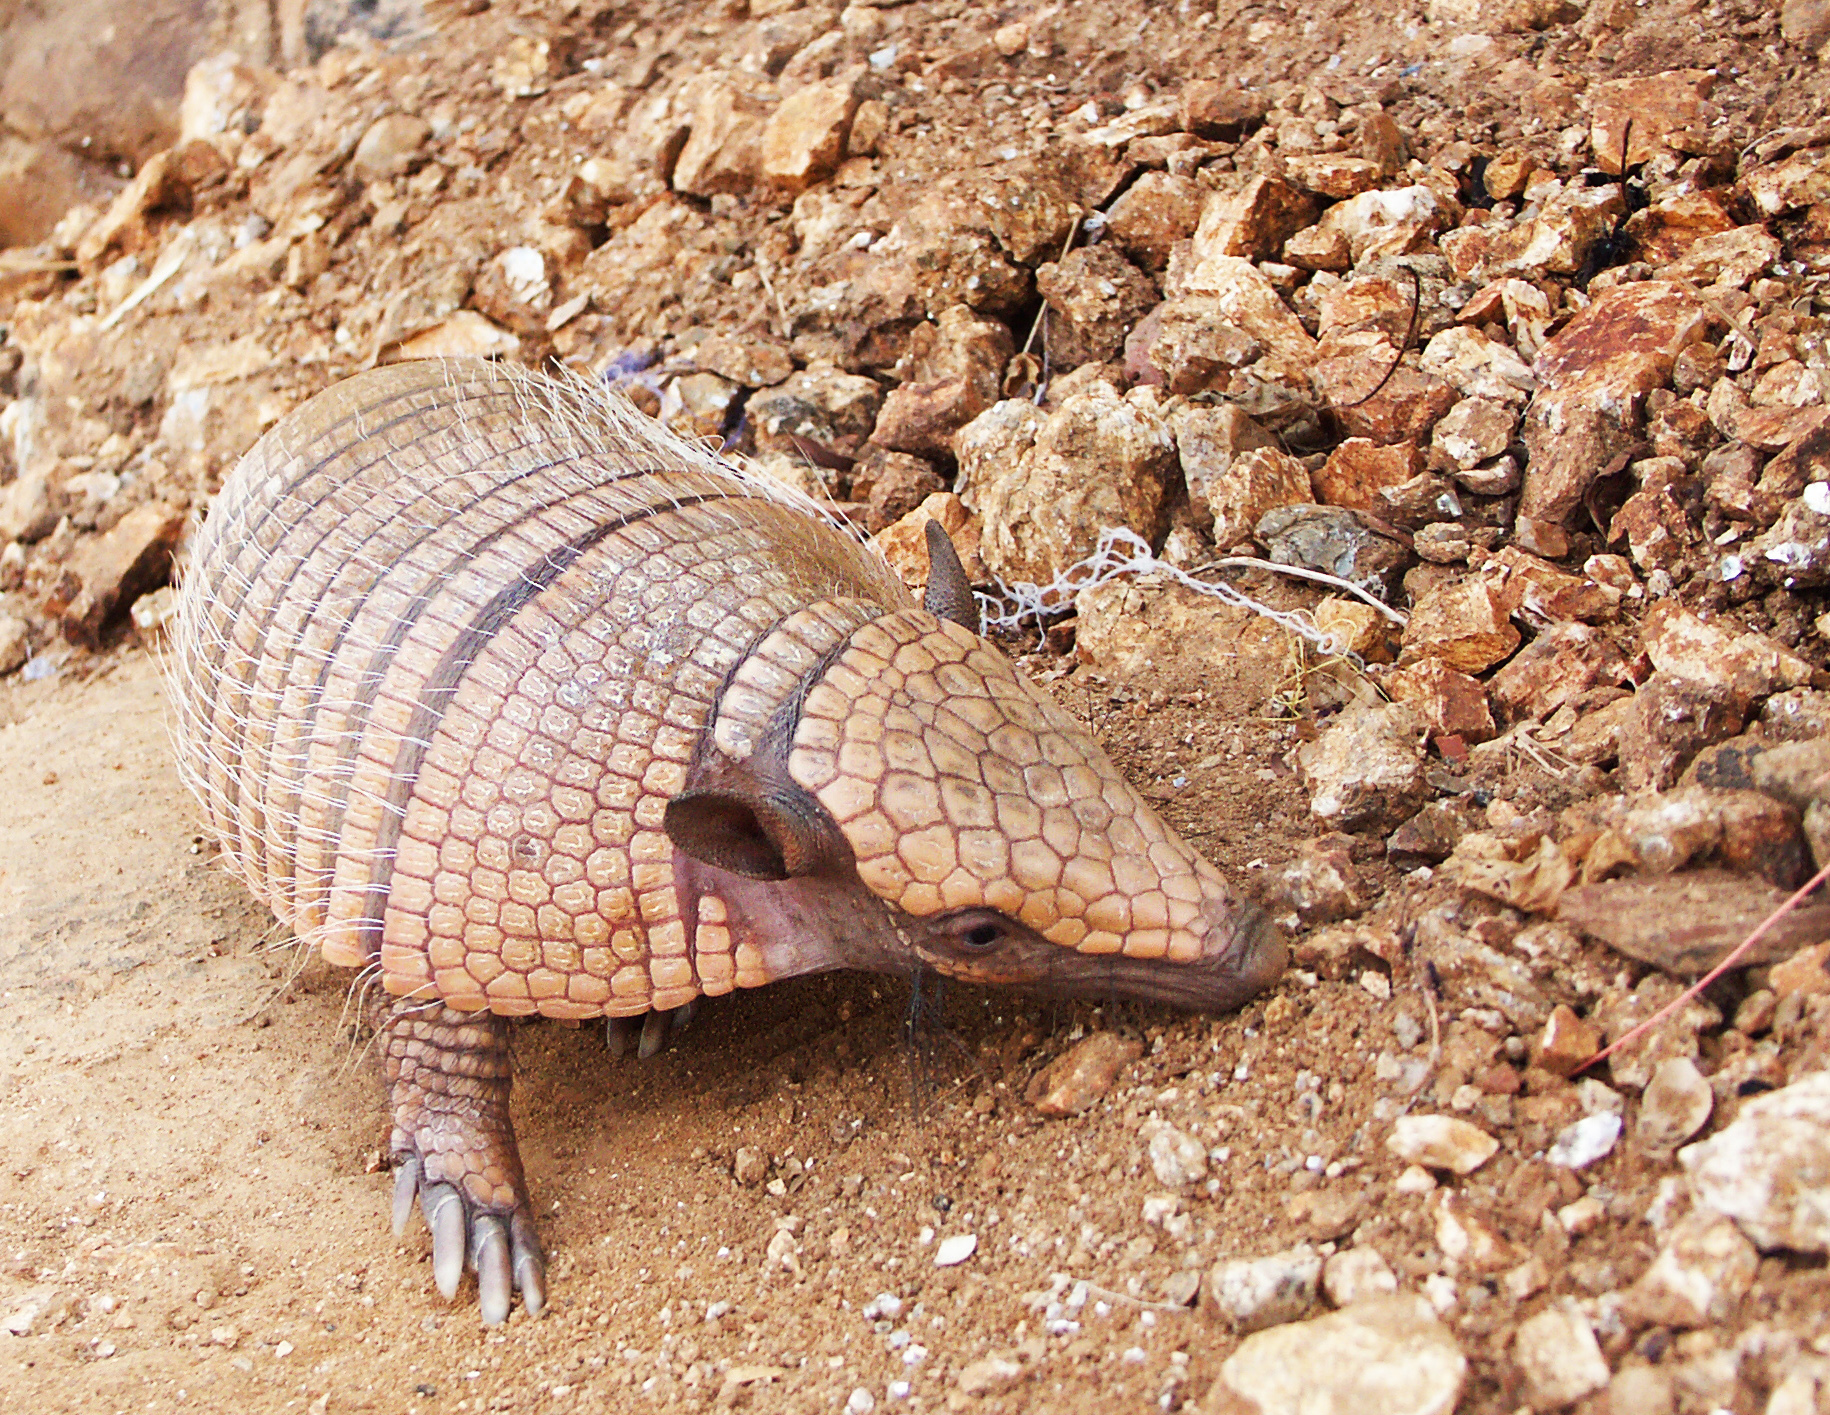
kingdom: Animalia
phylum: Chordata
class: Mammalia
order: Cingulata
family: Dasypodidae
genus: Euphractus
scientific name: Euphractus sexcinctus
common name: Six-banded armadillo
